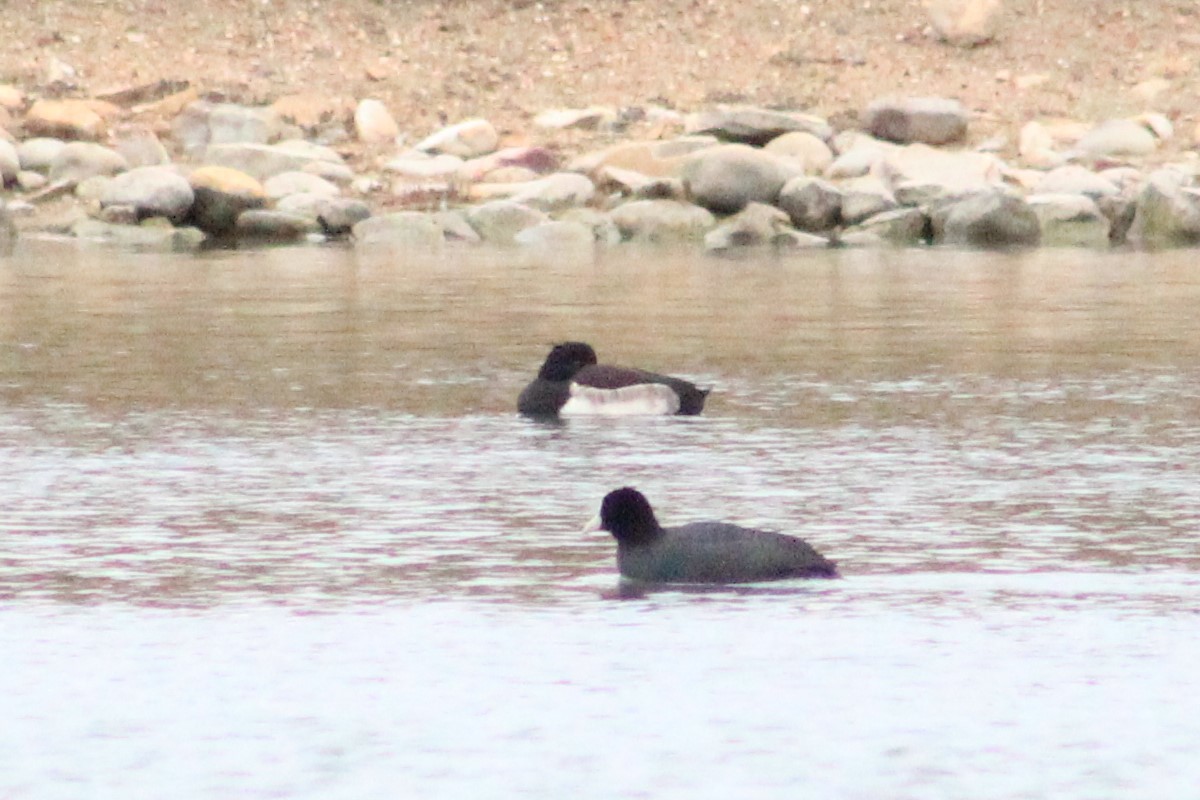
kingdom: Animalia
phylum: Chordata
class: Aves
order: Anseriformes
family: Anatidae
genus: Aythya
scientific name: Aythya fuligula
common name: Tufted duck
